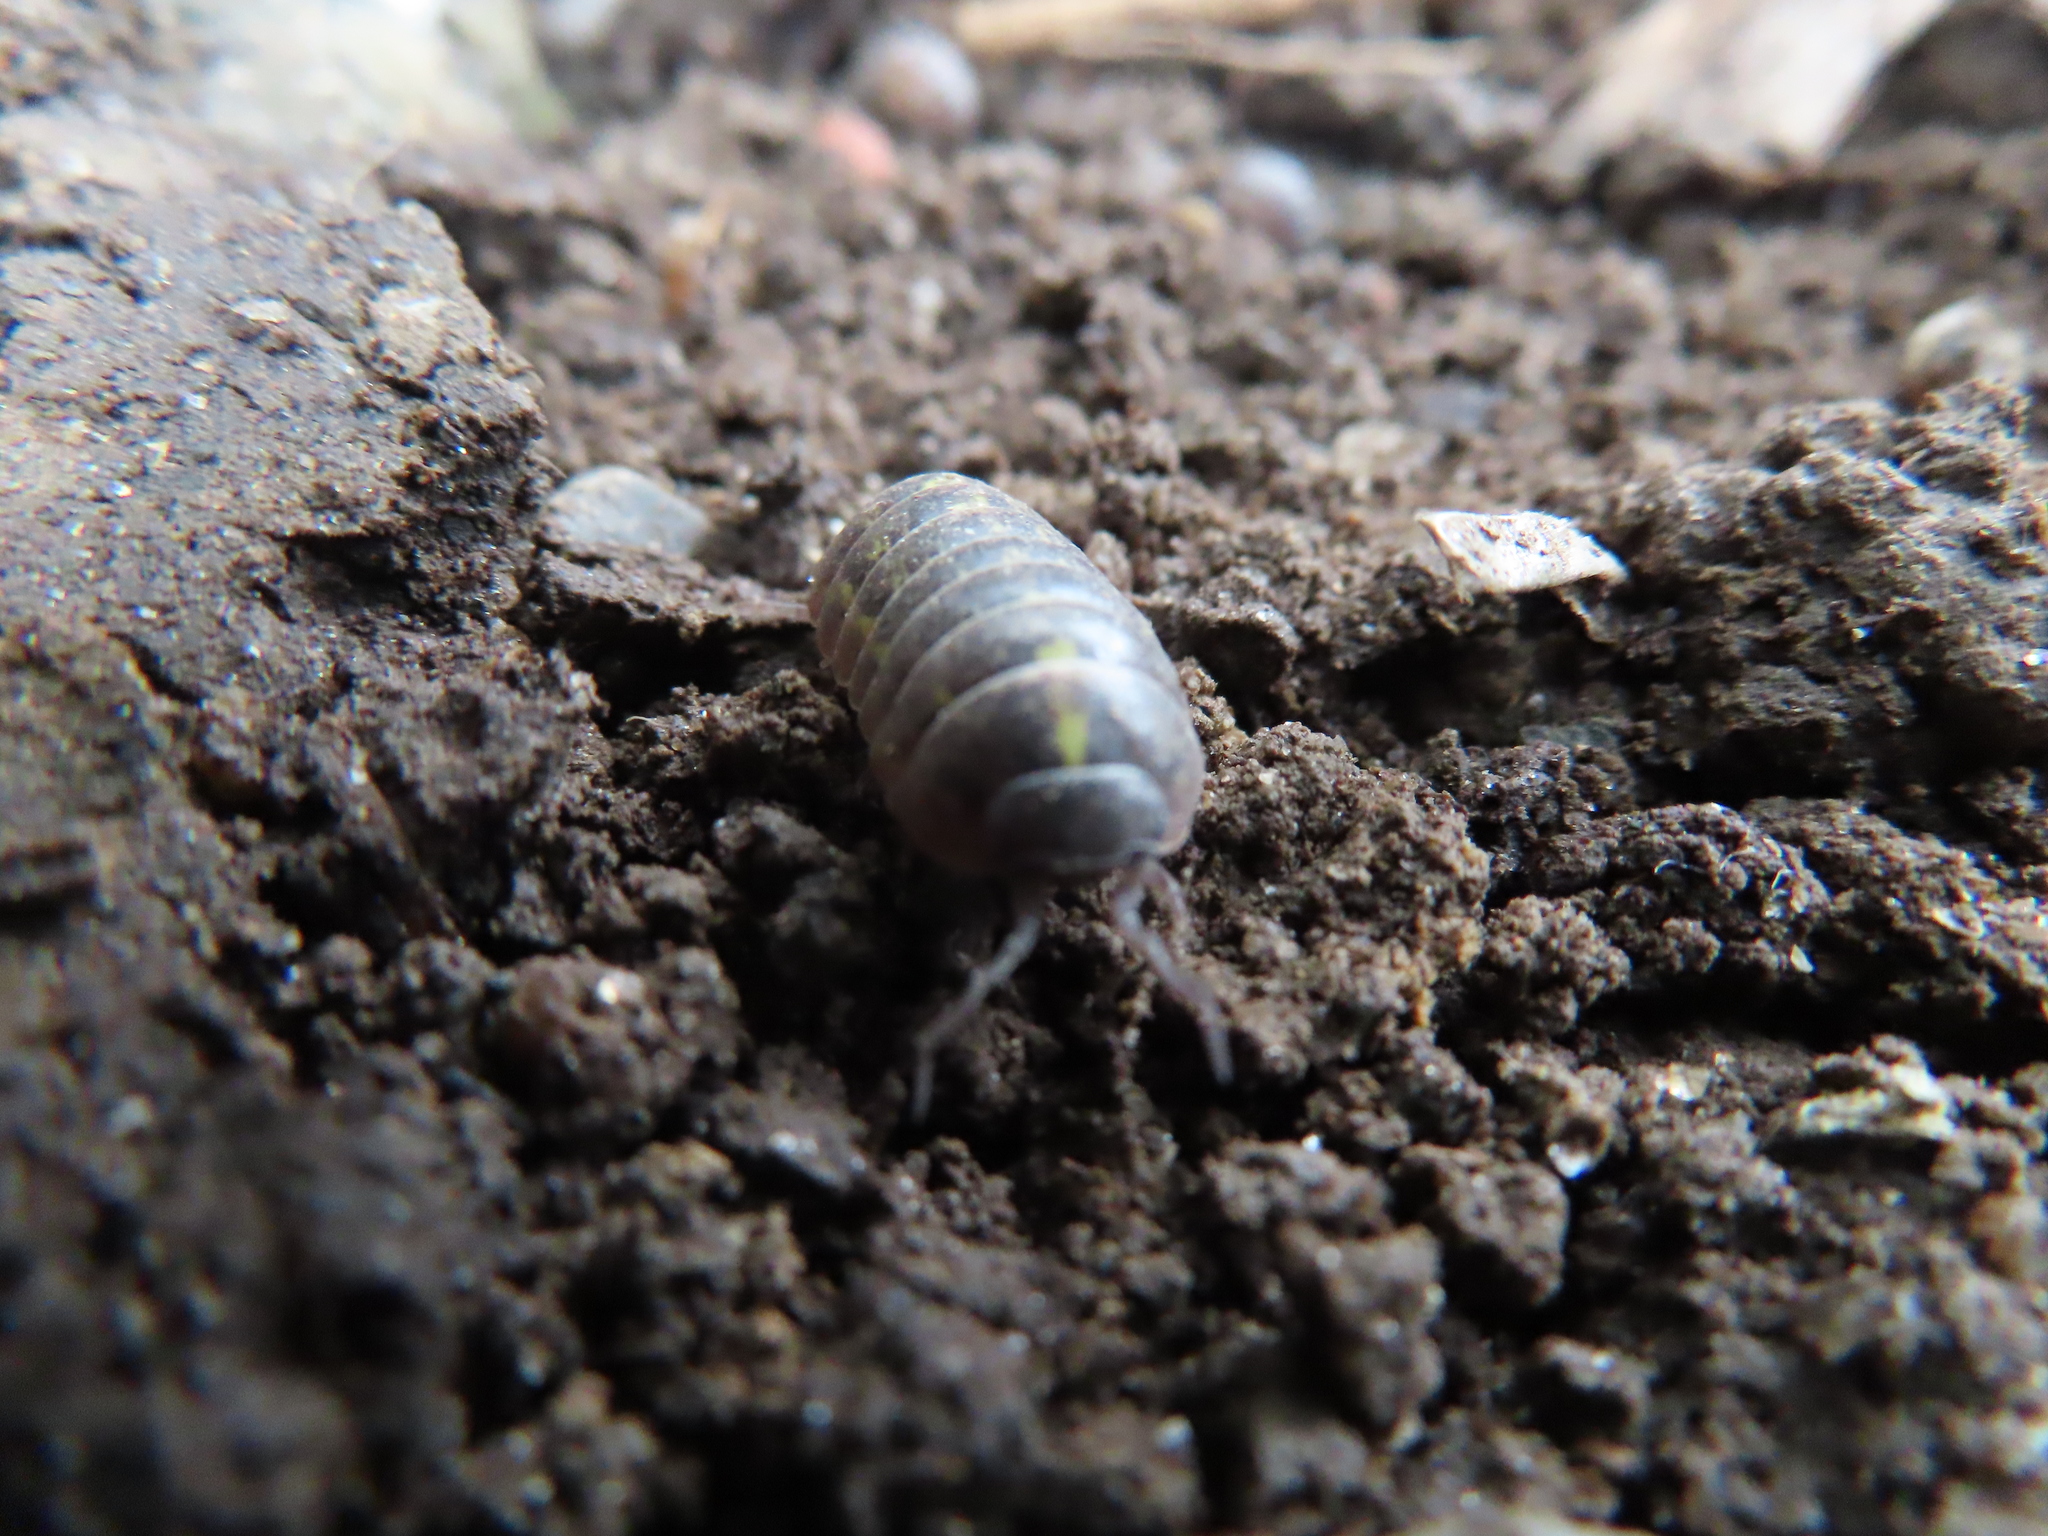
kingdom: Animalia
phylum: Arthropoda
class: Malacostraca
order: Isopoda
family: Armadillidiidae
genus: Armadillidium
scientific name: Armadillidium vulgare
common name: Common pill woodlouse
